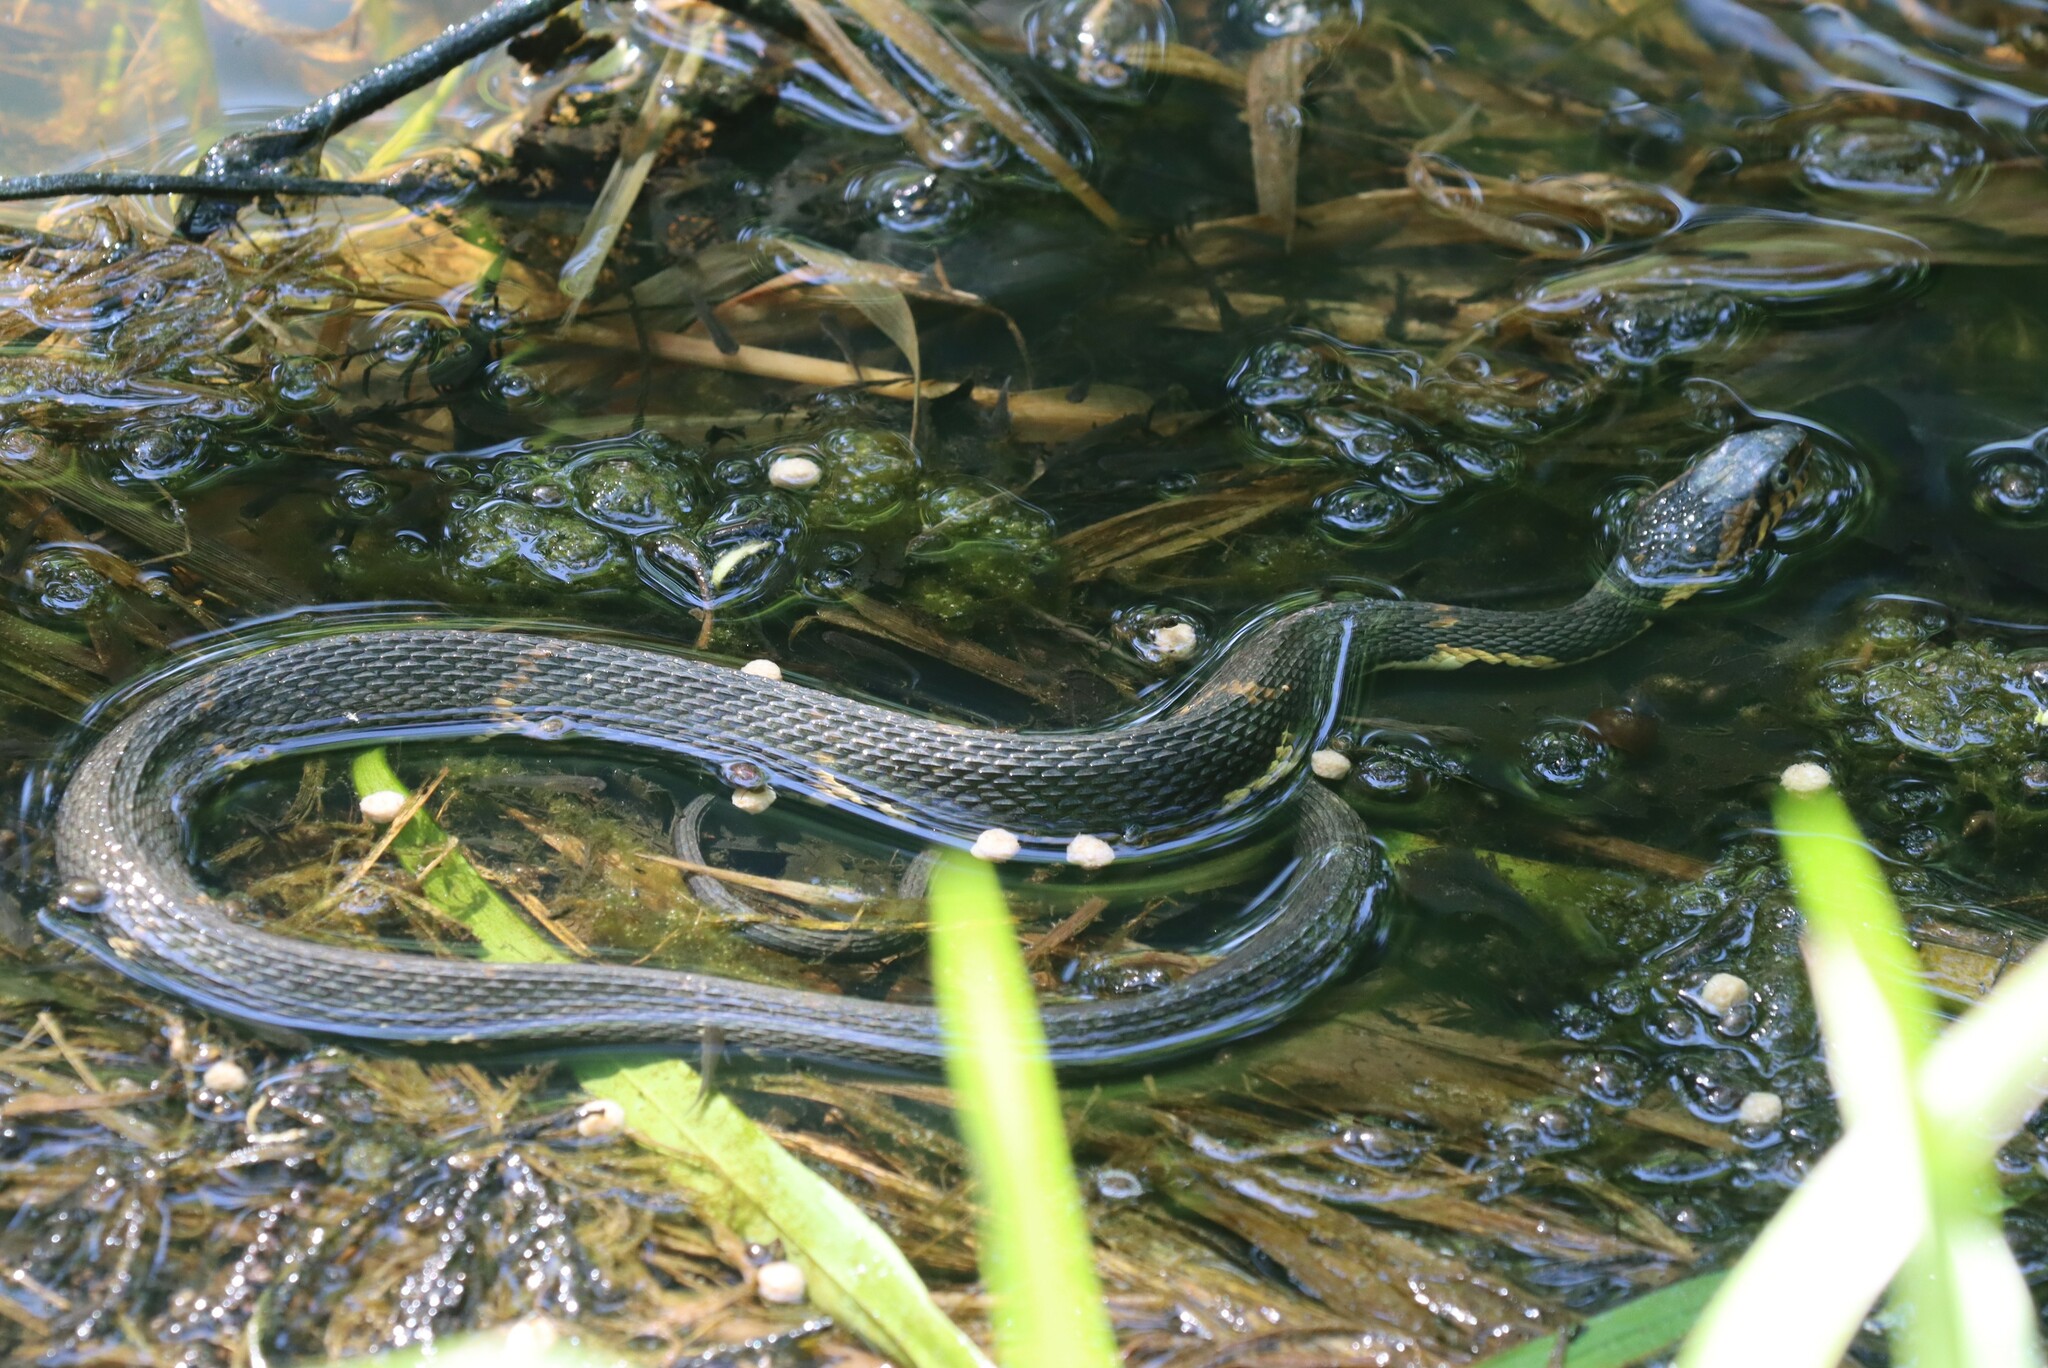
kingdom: Animalia
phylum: Chordata
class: Squamata
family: Colubridae
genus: Nerodia
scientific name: Nerodia fasciata
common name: Southern water snake
